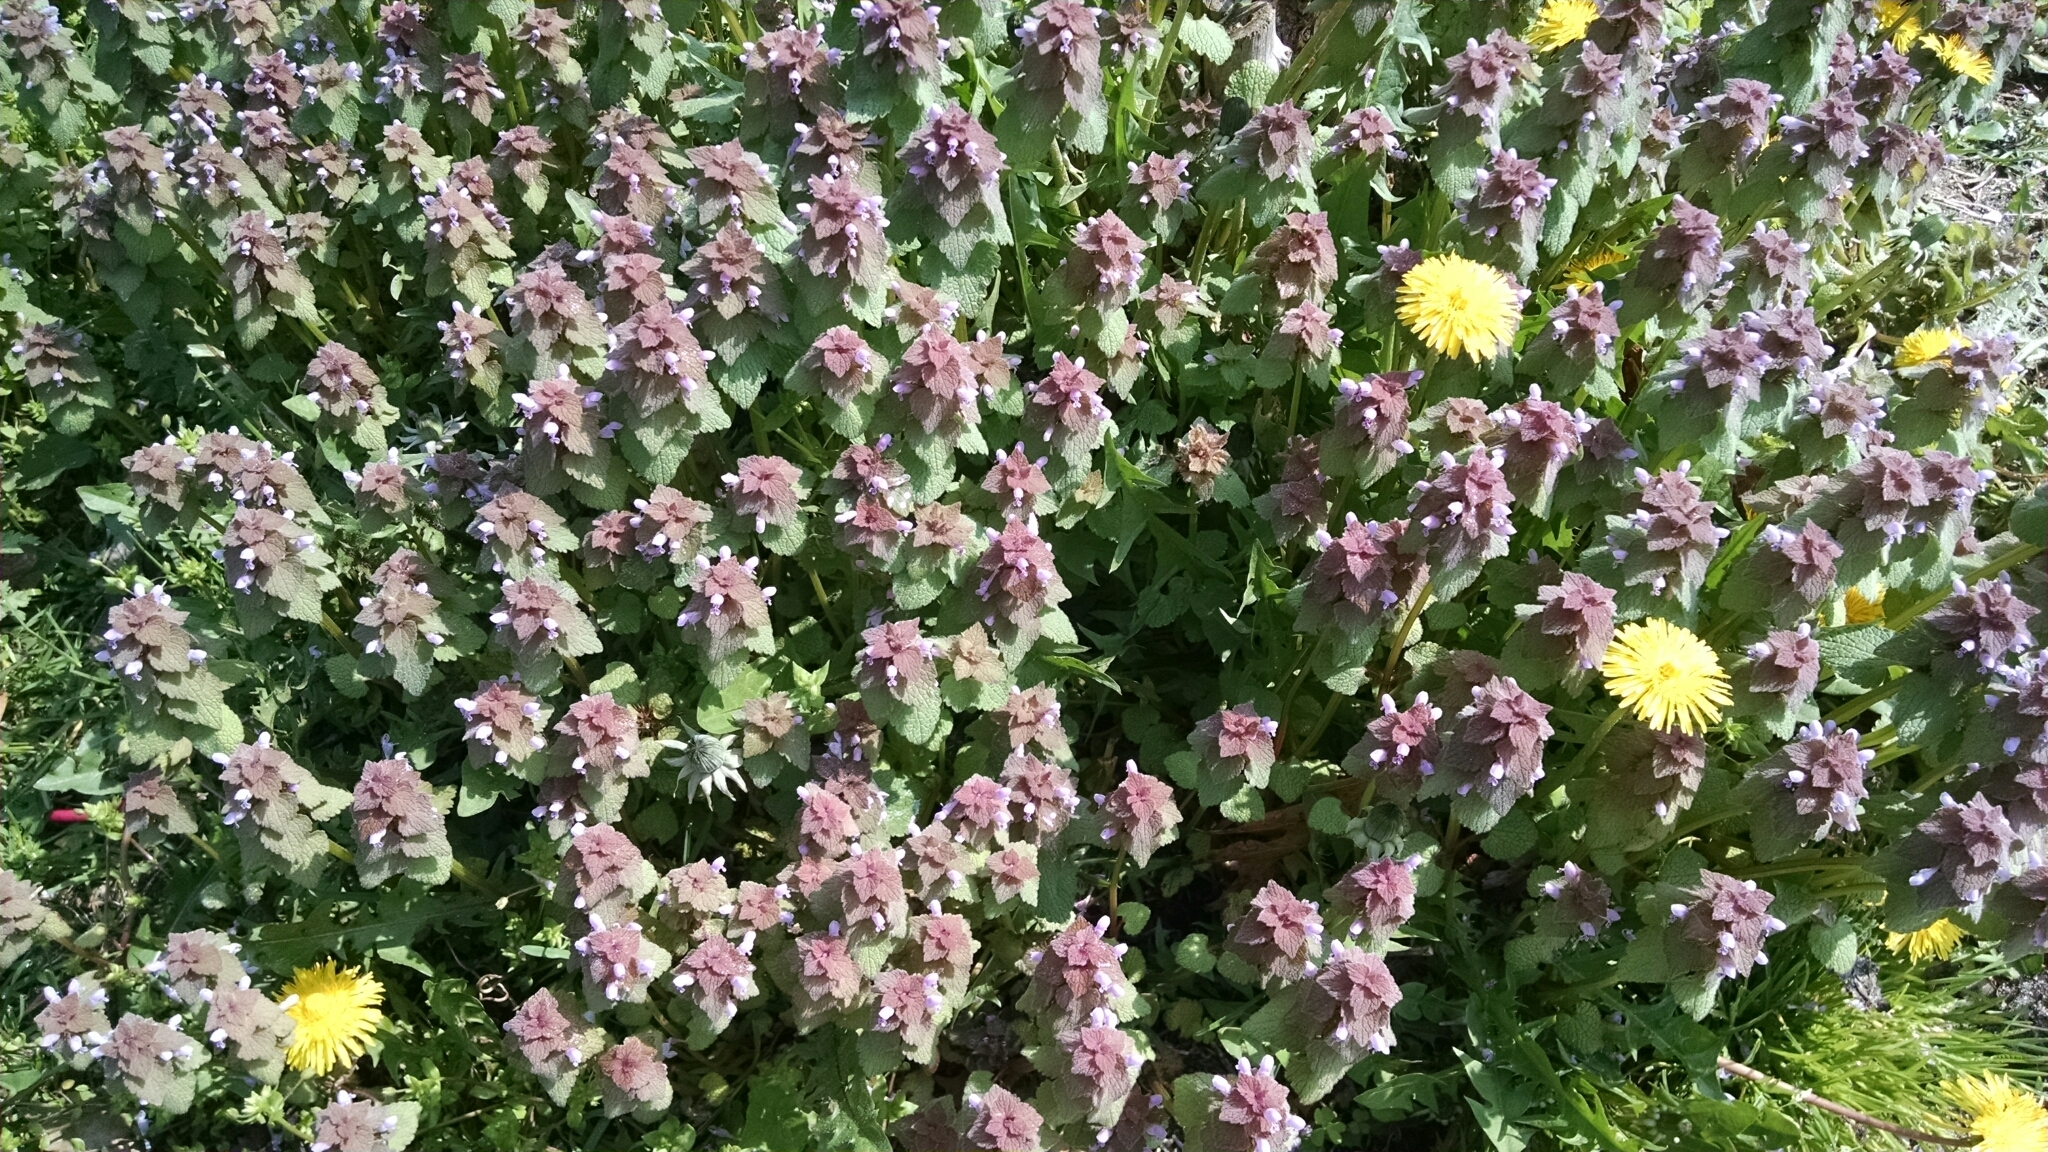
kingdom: Plantae
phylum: Tracheophyta
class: Magnoliopsida
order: Lamiales
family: Lamiaceae
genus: Lamium
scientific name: Lamium purpureum
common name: Red dead-nettle
